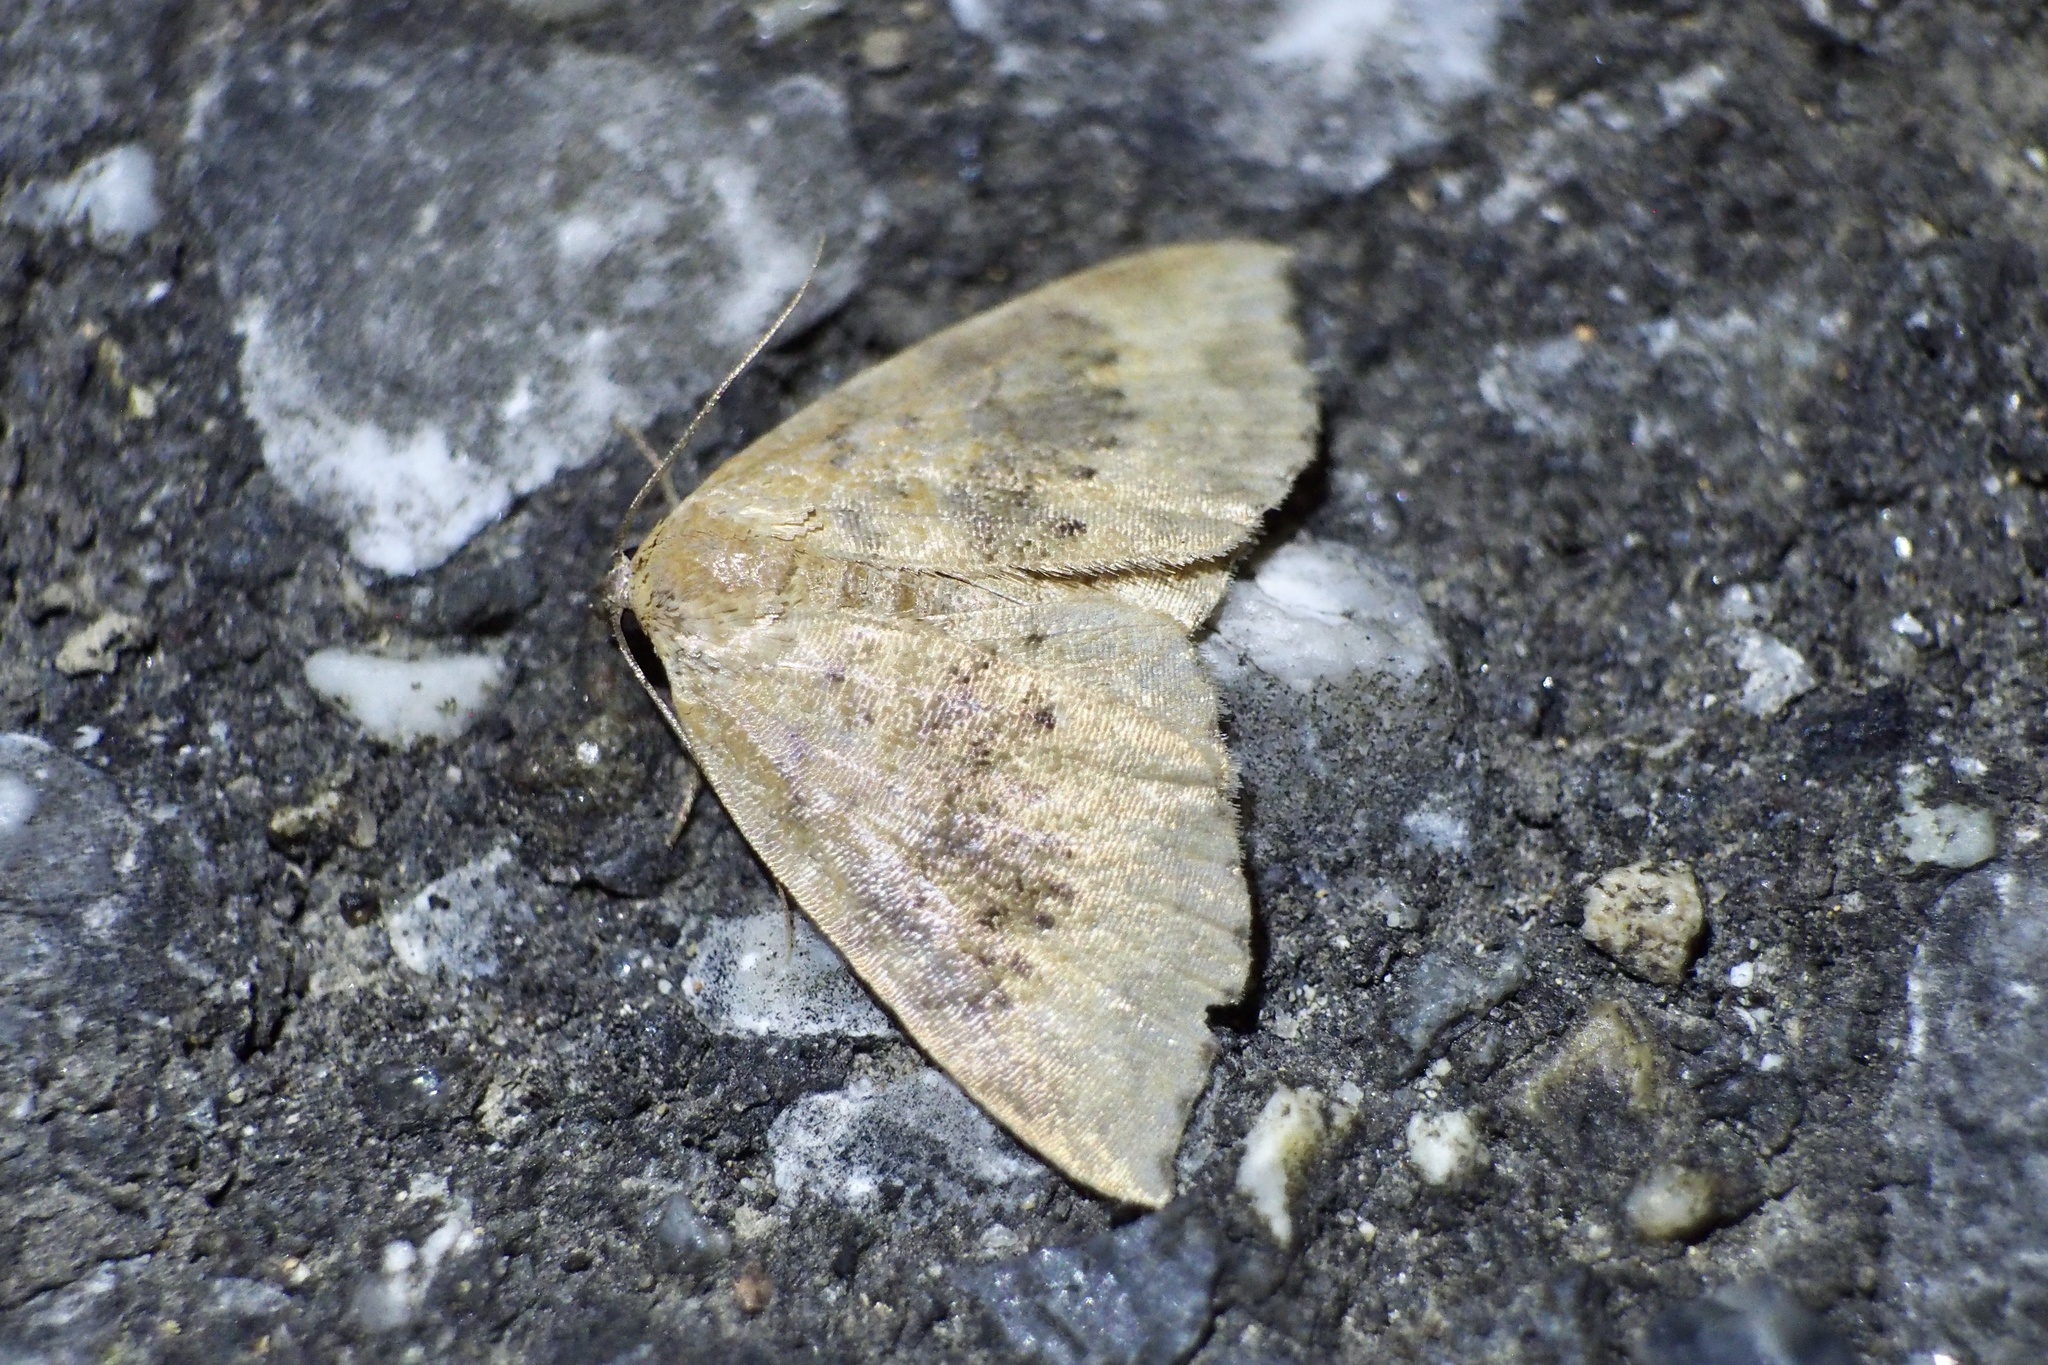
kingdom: Animalia
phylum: Arthropoda
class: Insecta
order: Lepidoptera
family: Noctuidae
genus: Oruza
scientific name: Oruza brunnea
